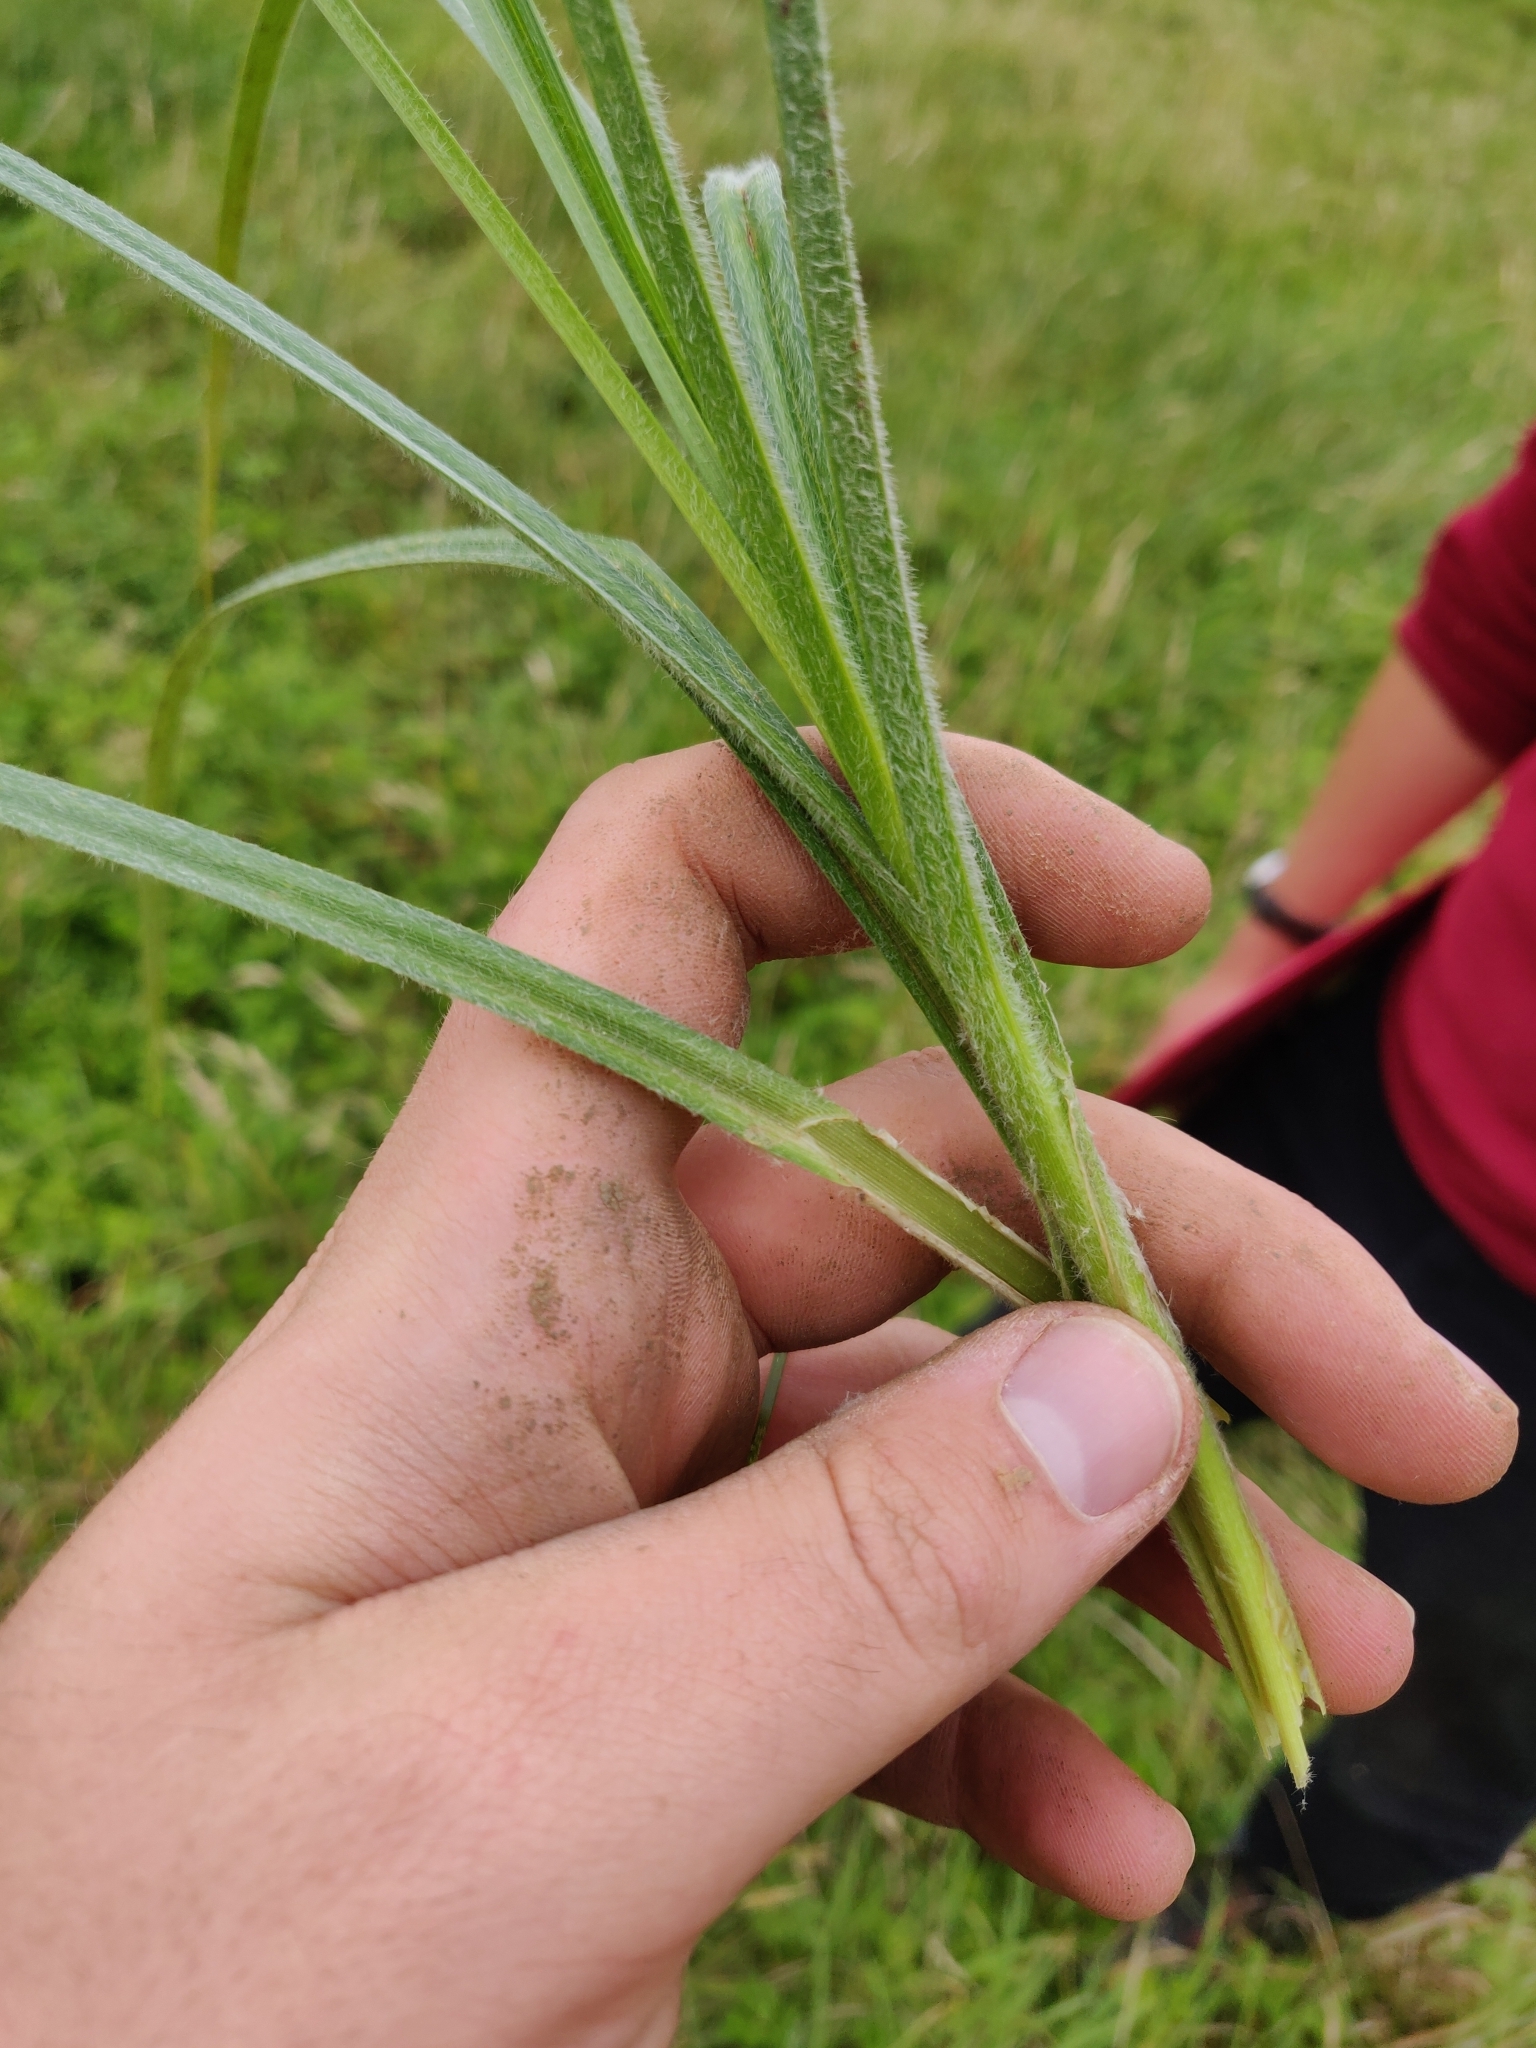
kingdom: Plantae
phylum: Tracheophyta
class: Liliopsida
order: Poales
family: Cyperaceae
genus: Carex
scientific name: Carex hirta
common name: Hairy sedge
